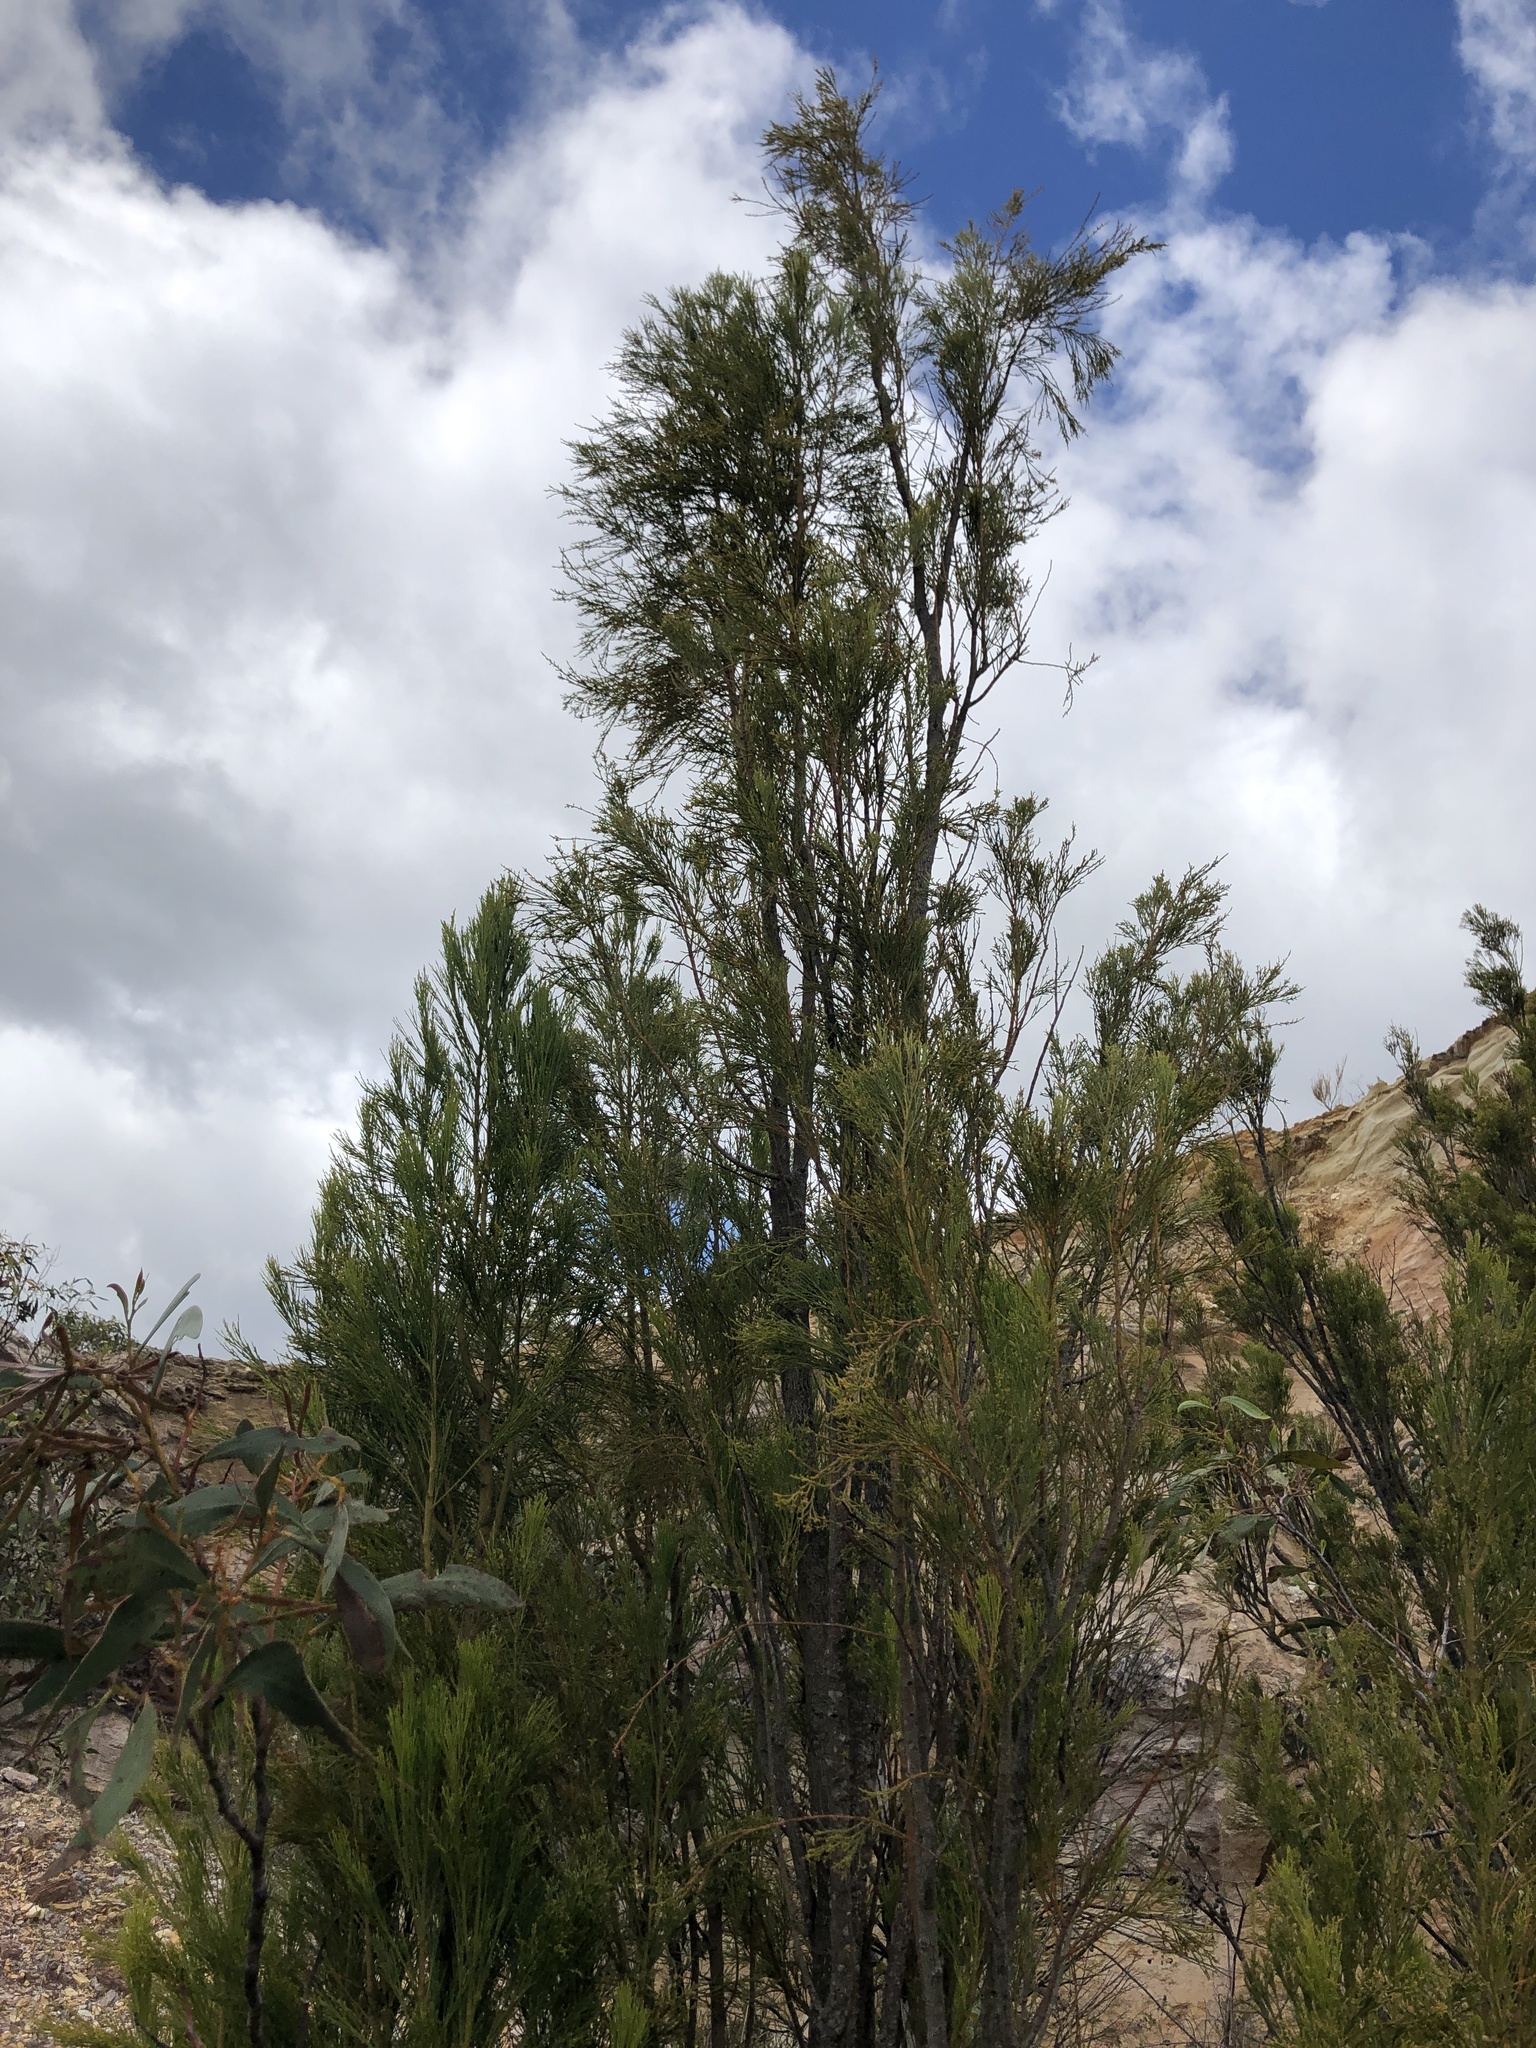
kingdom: Plantae
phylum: Tracheophyta
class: Magnoliopsida
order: Santalales
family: Santalaceae
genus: Exocarpos
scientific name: Exocarpos cupressiformis
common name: Cherry ballart
